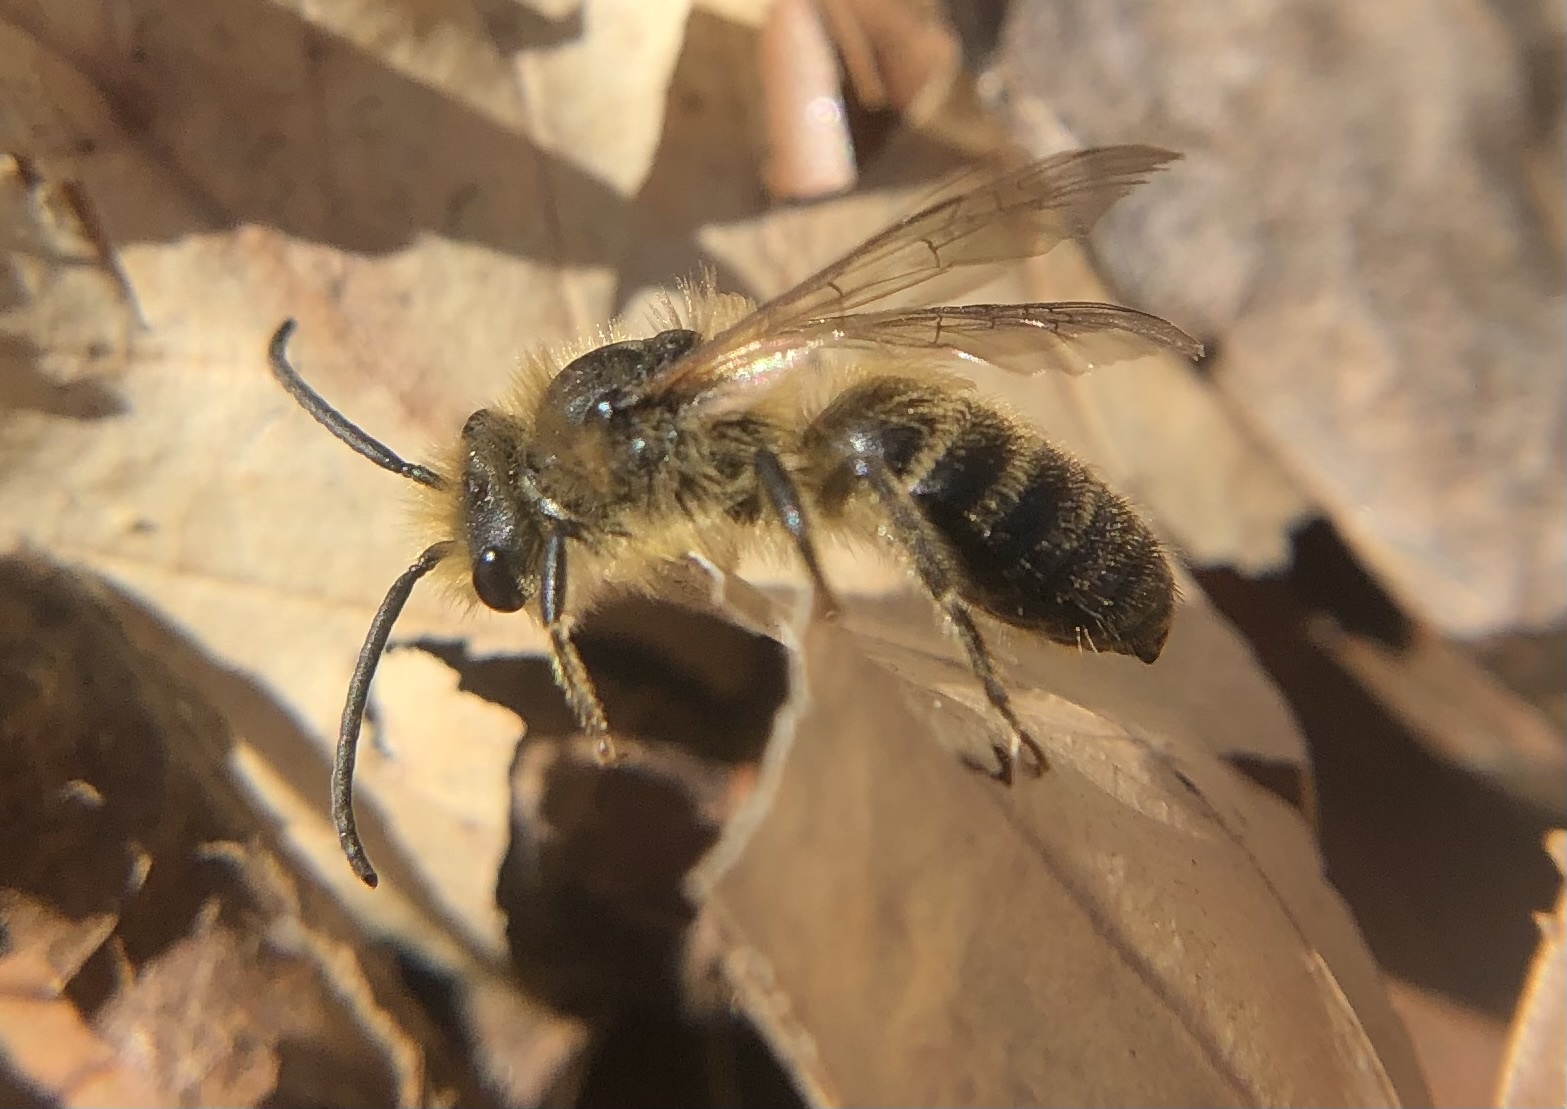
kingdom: Animalia
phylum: Arthropoda
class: Insecta
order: Hymenoptera
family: Colletidae
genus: Colletes
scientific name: Colletes inaequalis
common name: Unequal cellophane bee
